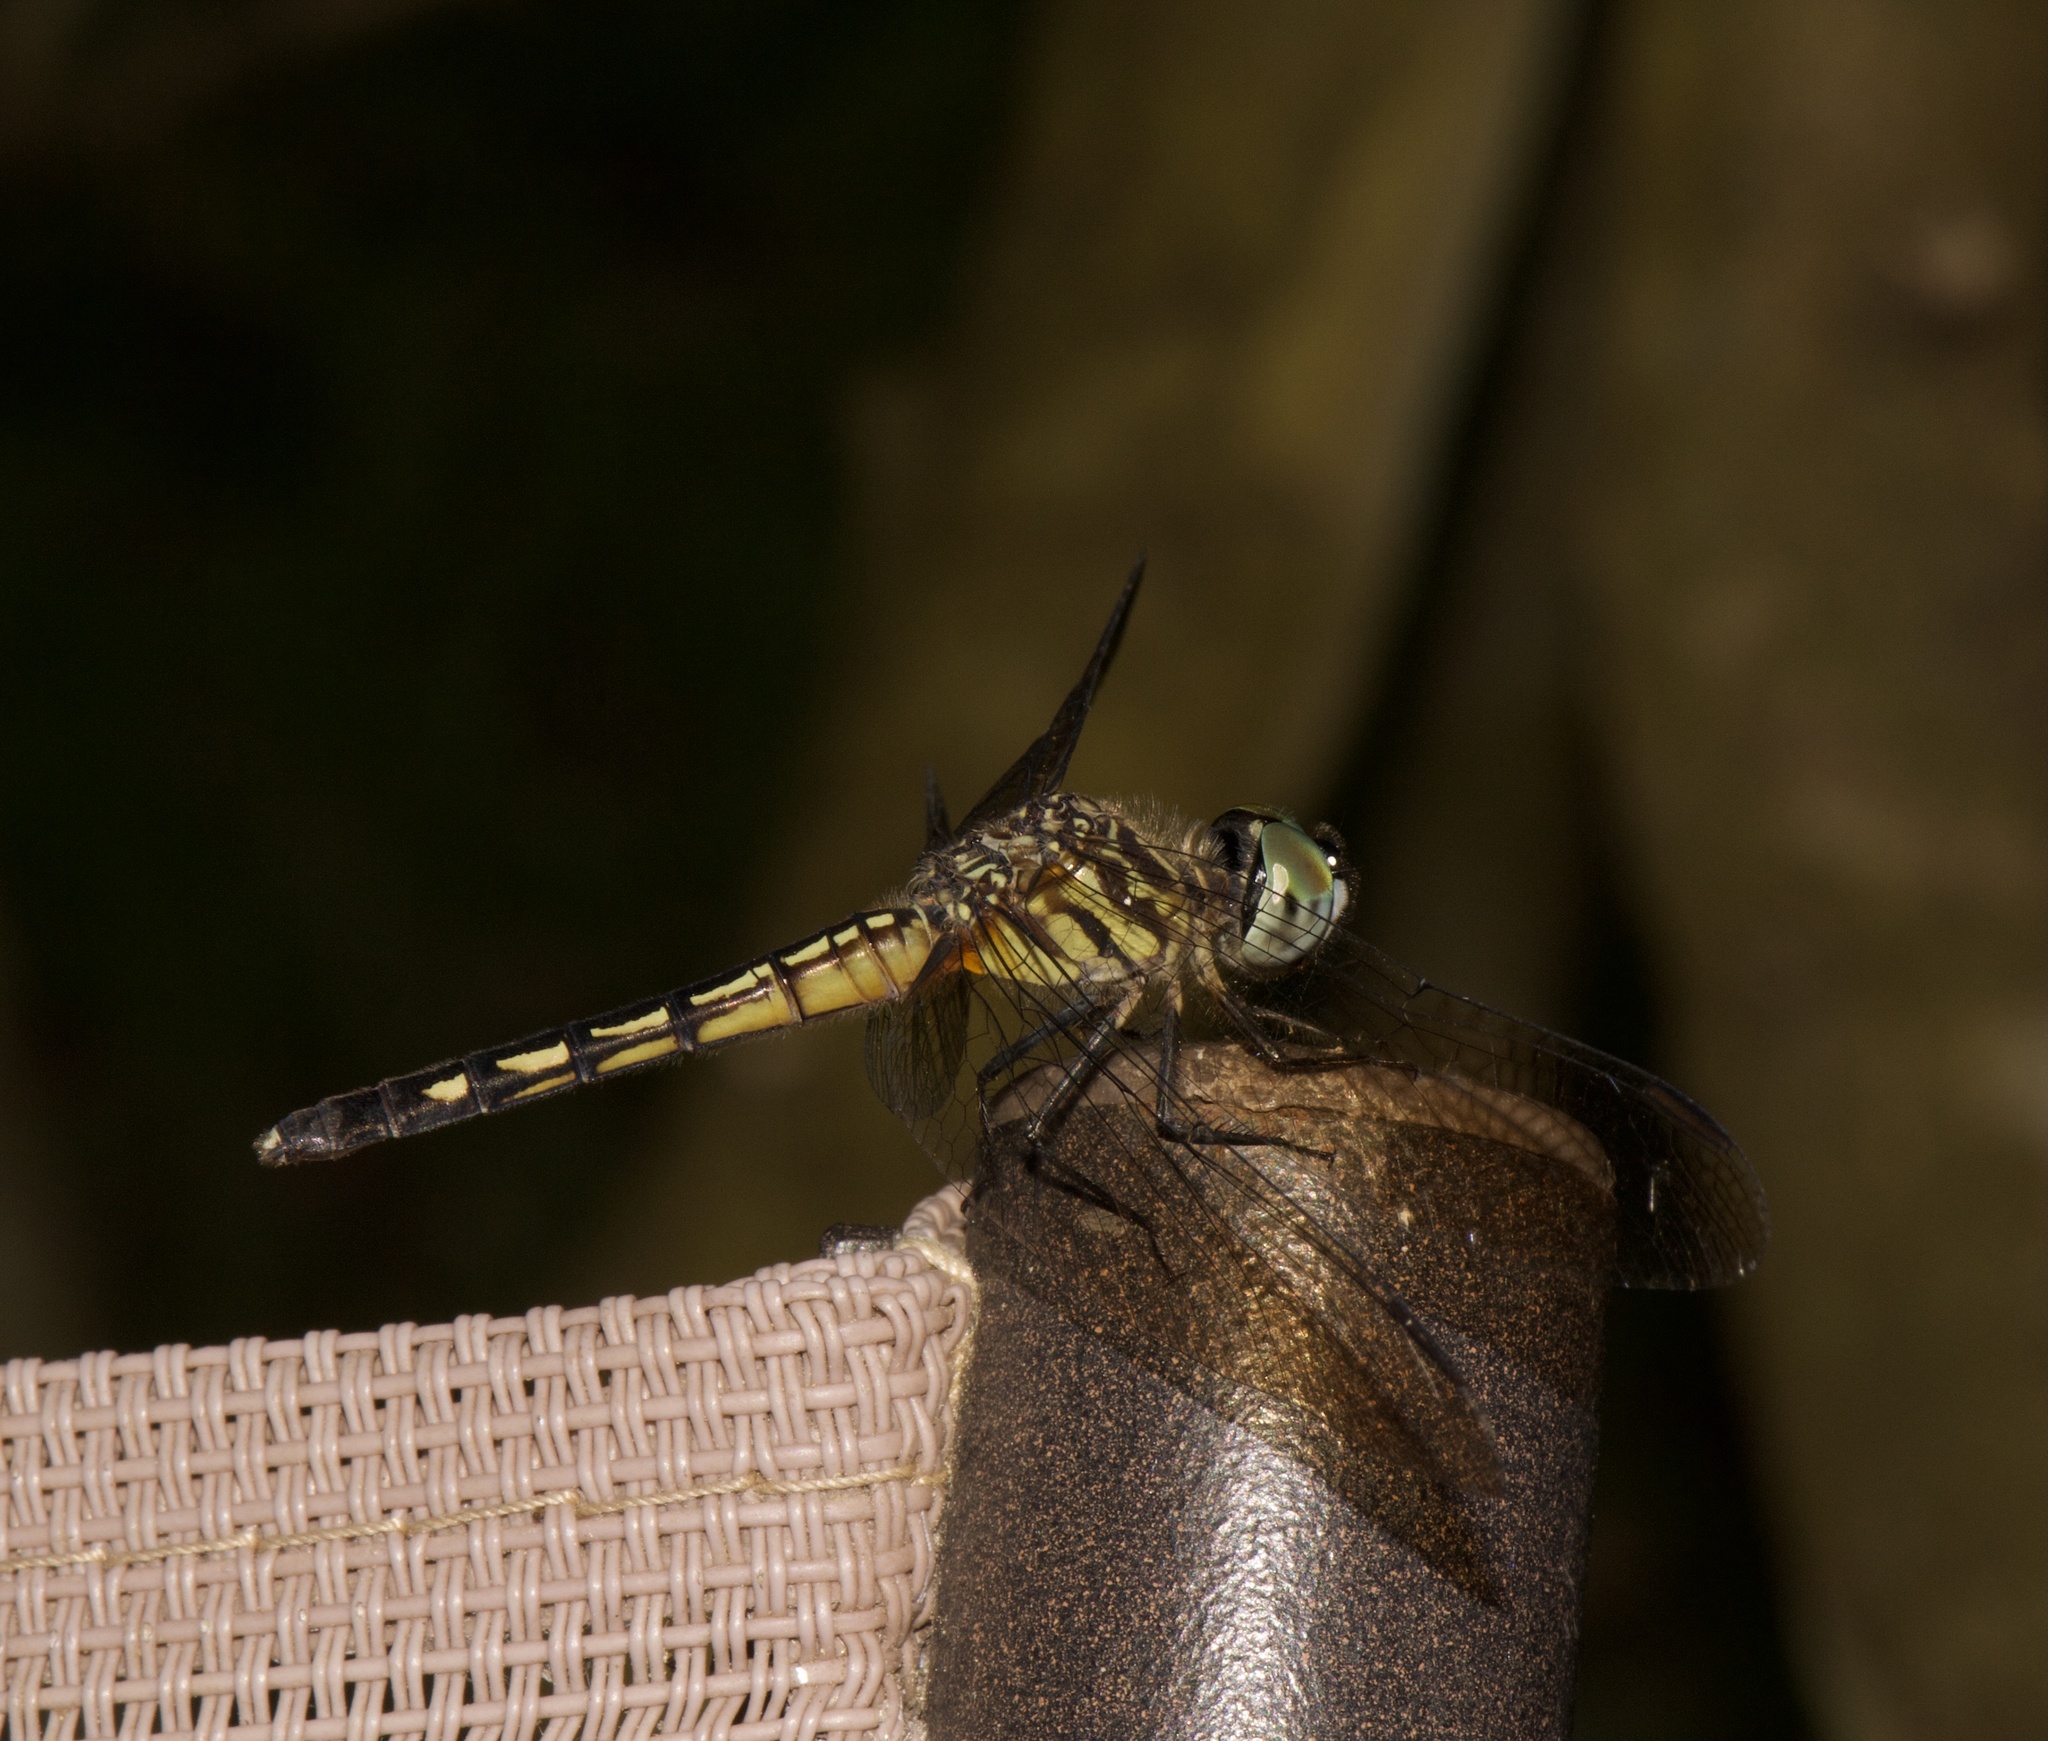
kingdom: Animalia
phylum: Arthropoda
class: Insecta
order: Odonata
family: Libellulidae
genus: Pachydiplax
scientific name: Pachydiplax longipennis
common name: Blue dasher
